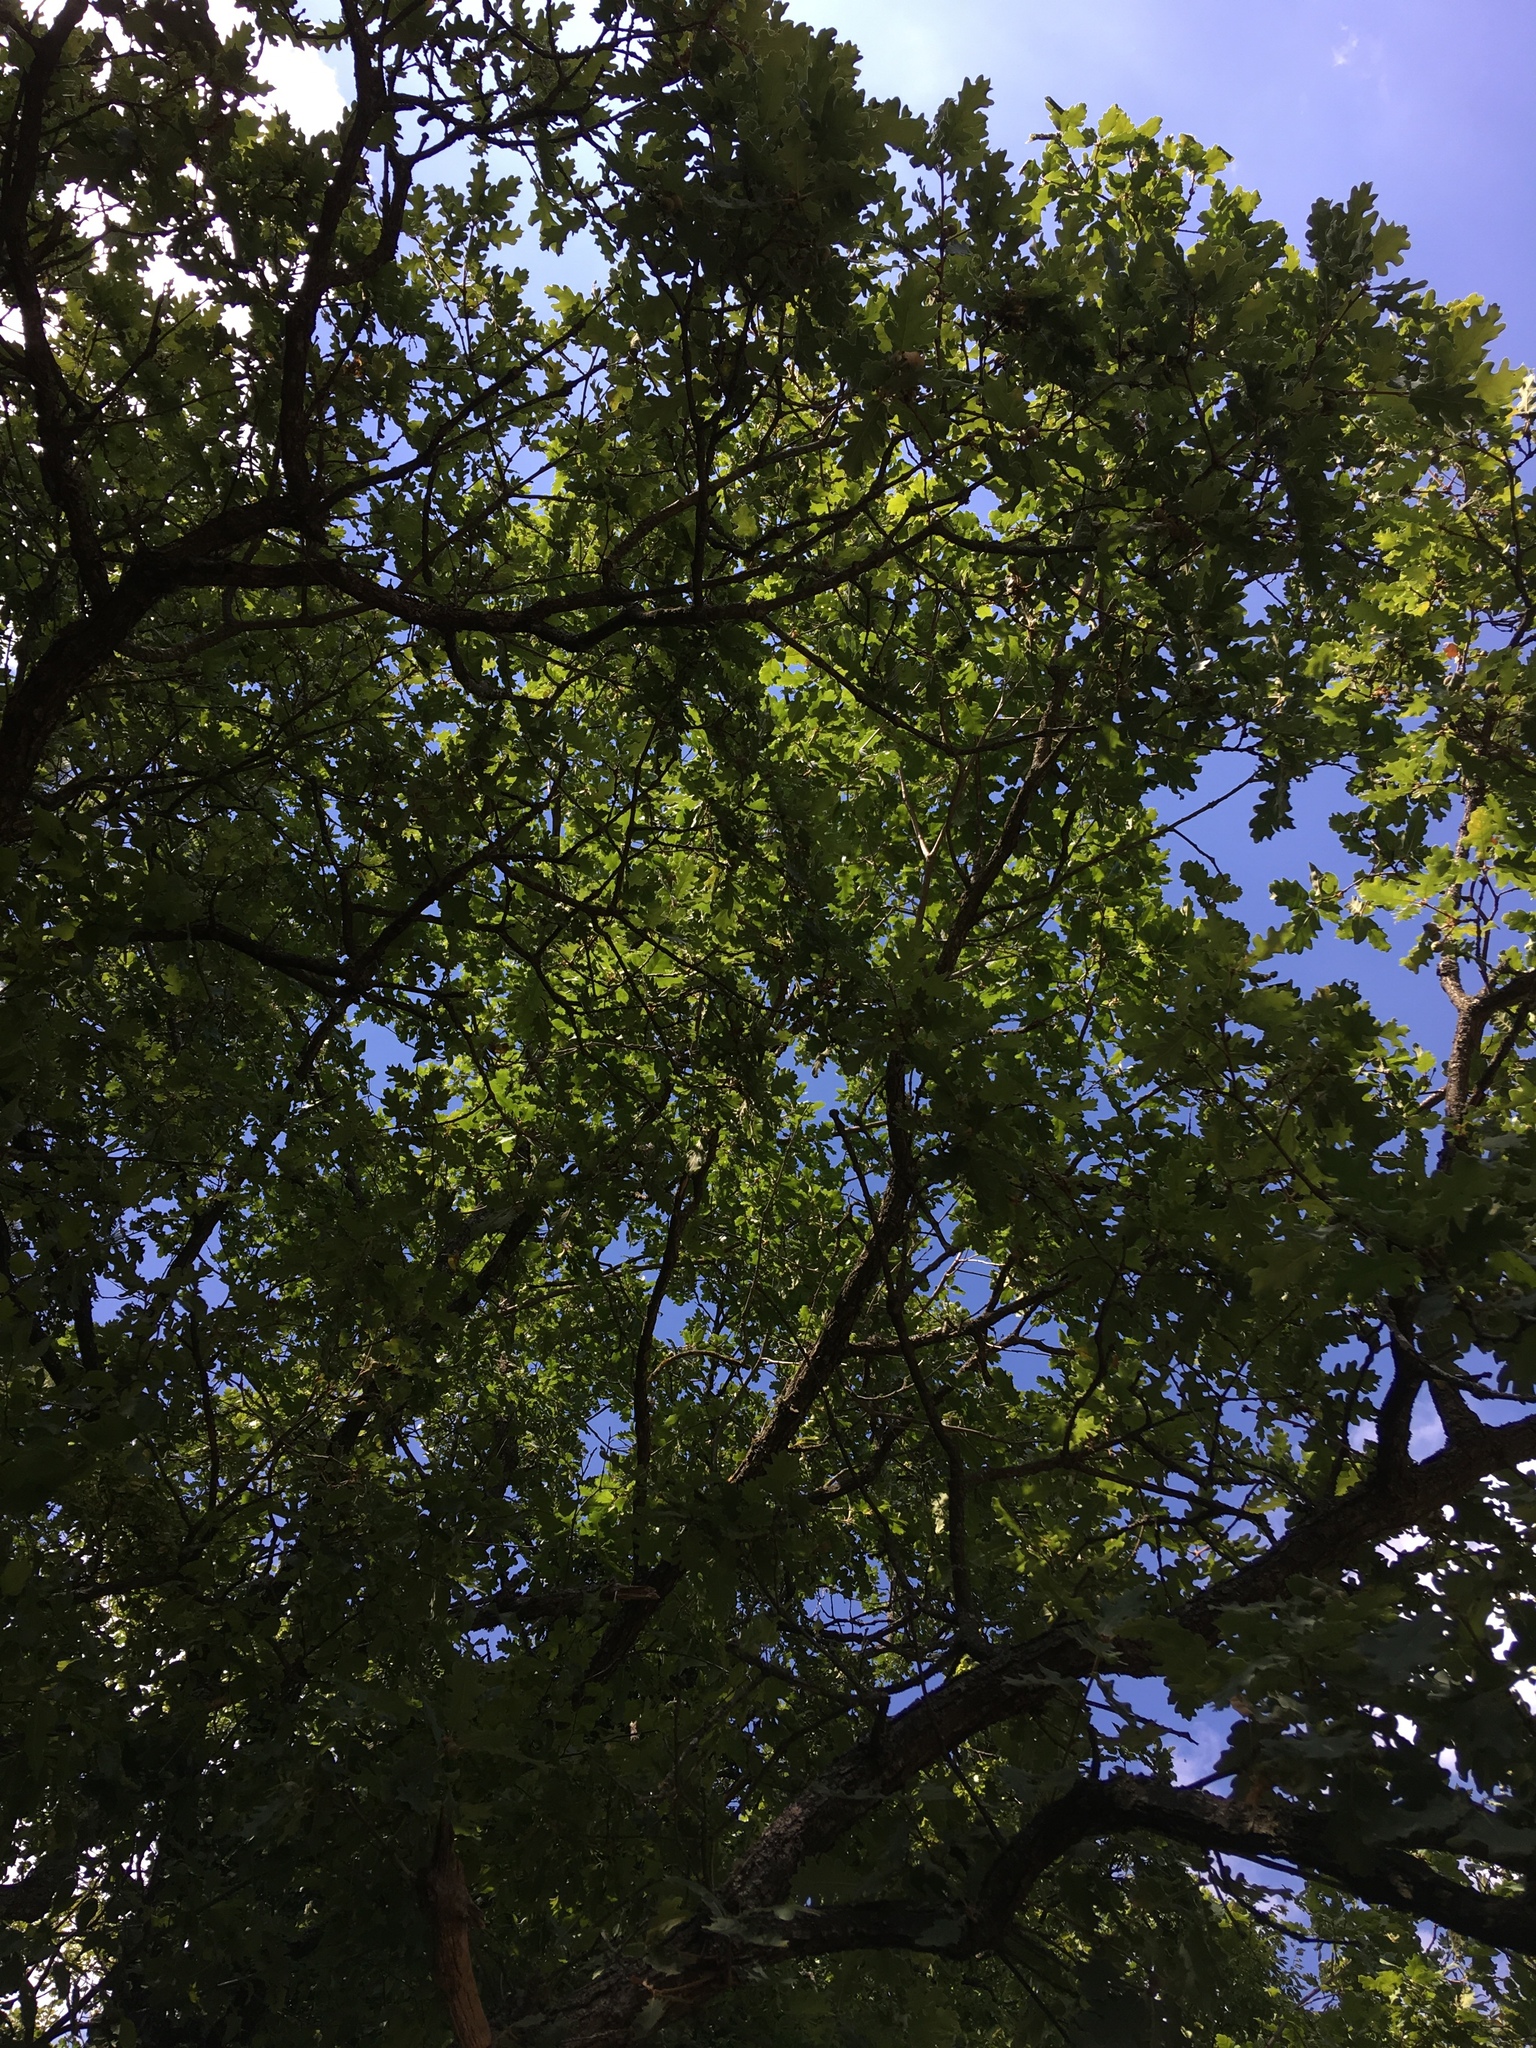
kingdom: Plantae
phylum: Tracheophyta
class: Magnoliopsida
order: Fagales
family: Fagaceae
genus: Quercus
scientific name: Quercus pubescens
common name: Downy oak
